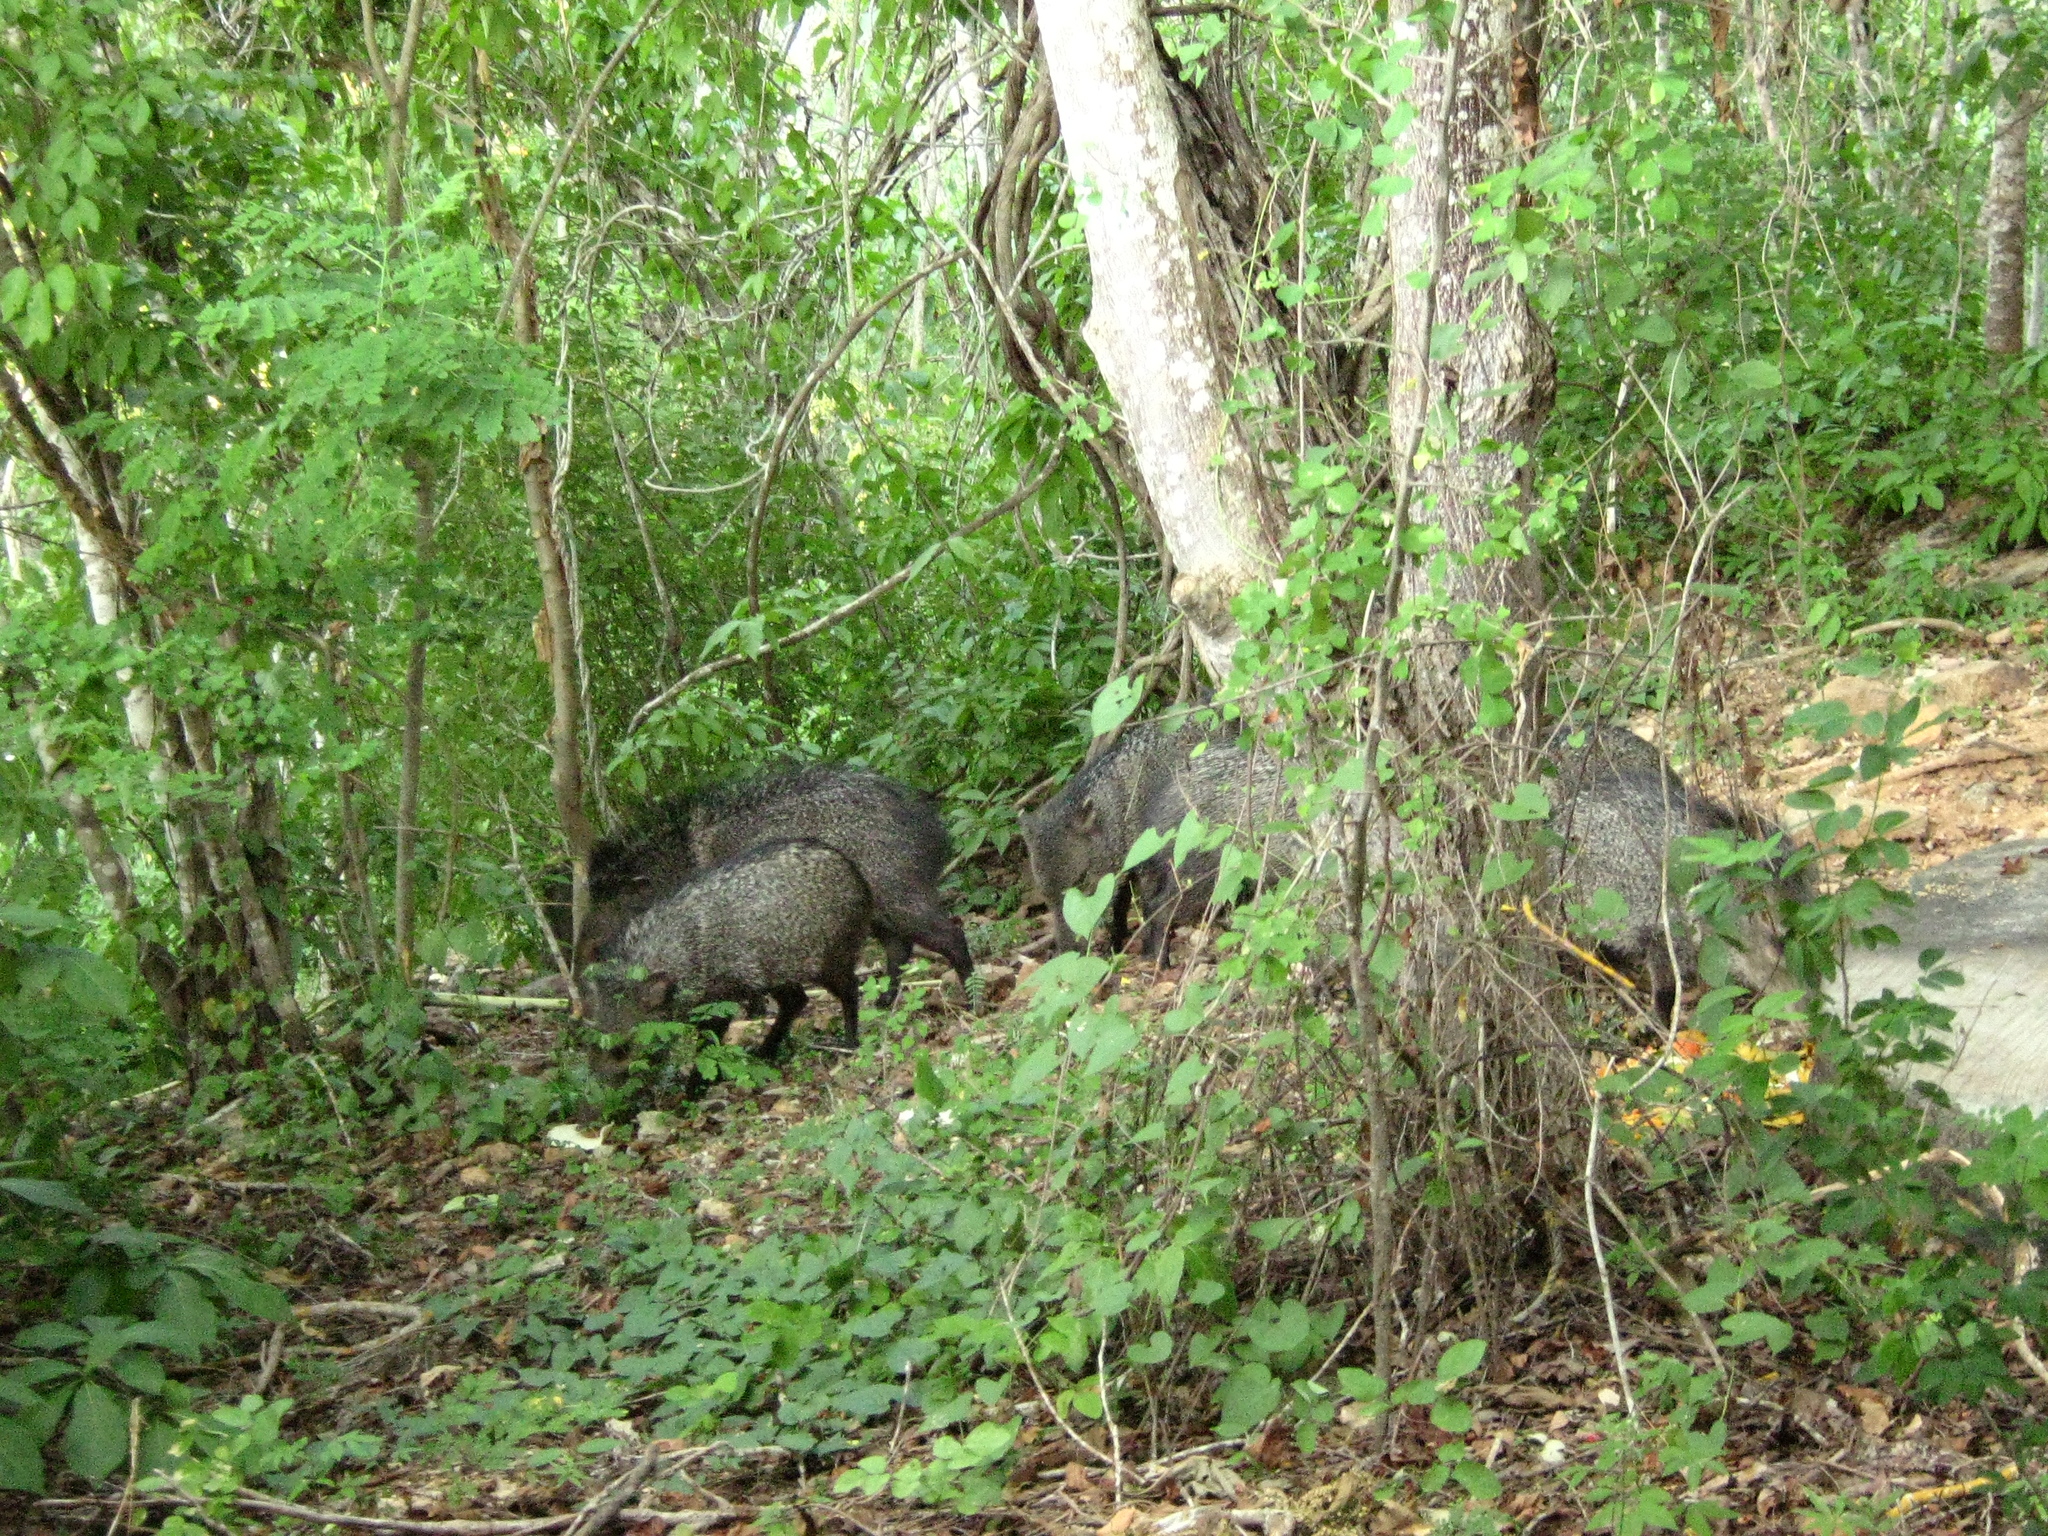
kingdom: Animalia
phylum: Chordata
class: Mammalia
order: Artiodactyla
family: Tayassuidae
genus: Pecari
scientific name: Pecari tajacu
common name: Collared peccary
